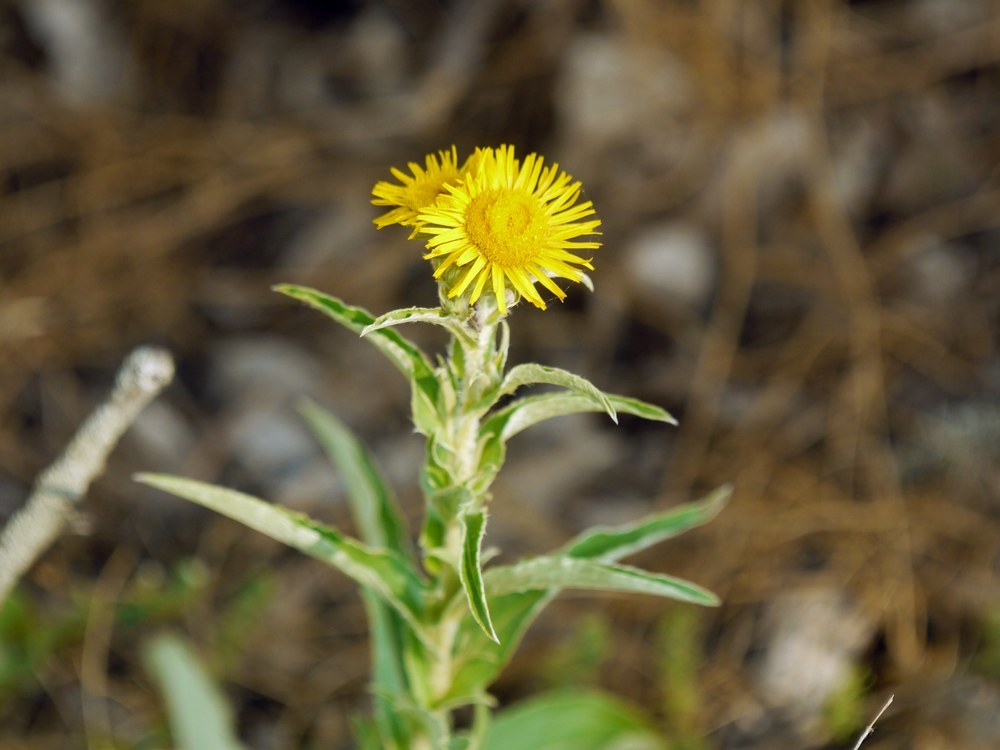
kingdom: Plantae
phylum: Tracheophyta
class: Magnoliopsida
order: Asterales
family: Asteraceae
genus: Pentanema
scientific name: Pentanema oculus-christi
